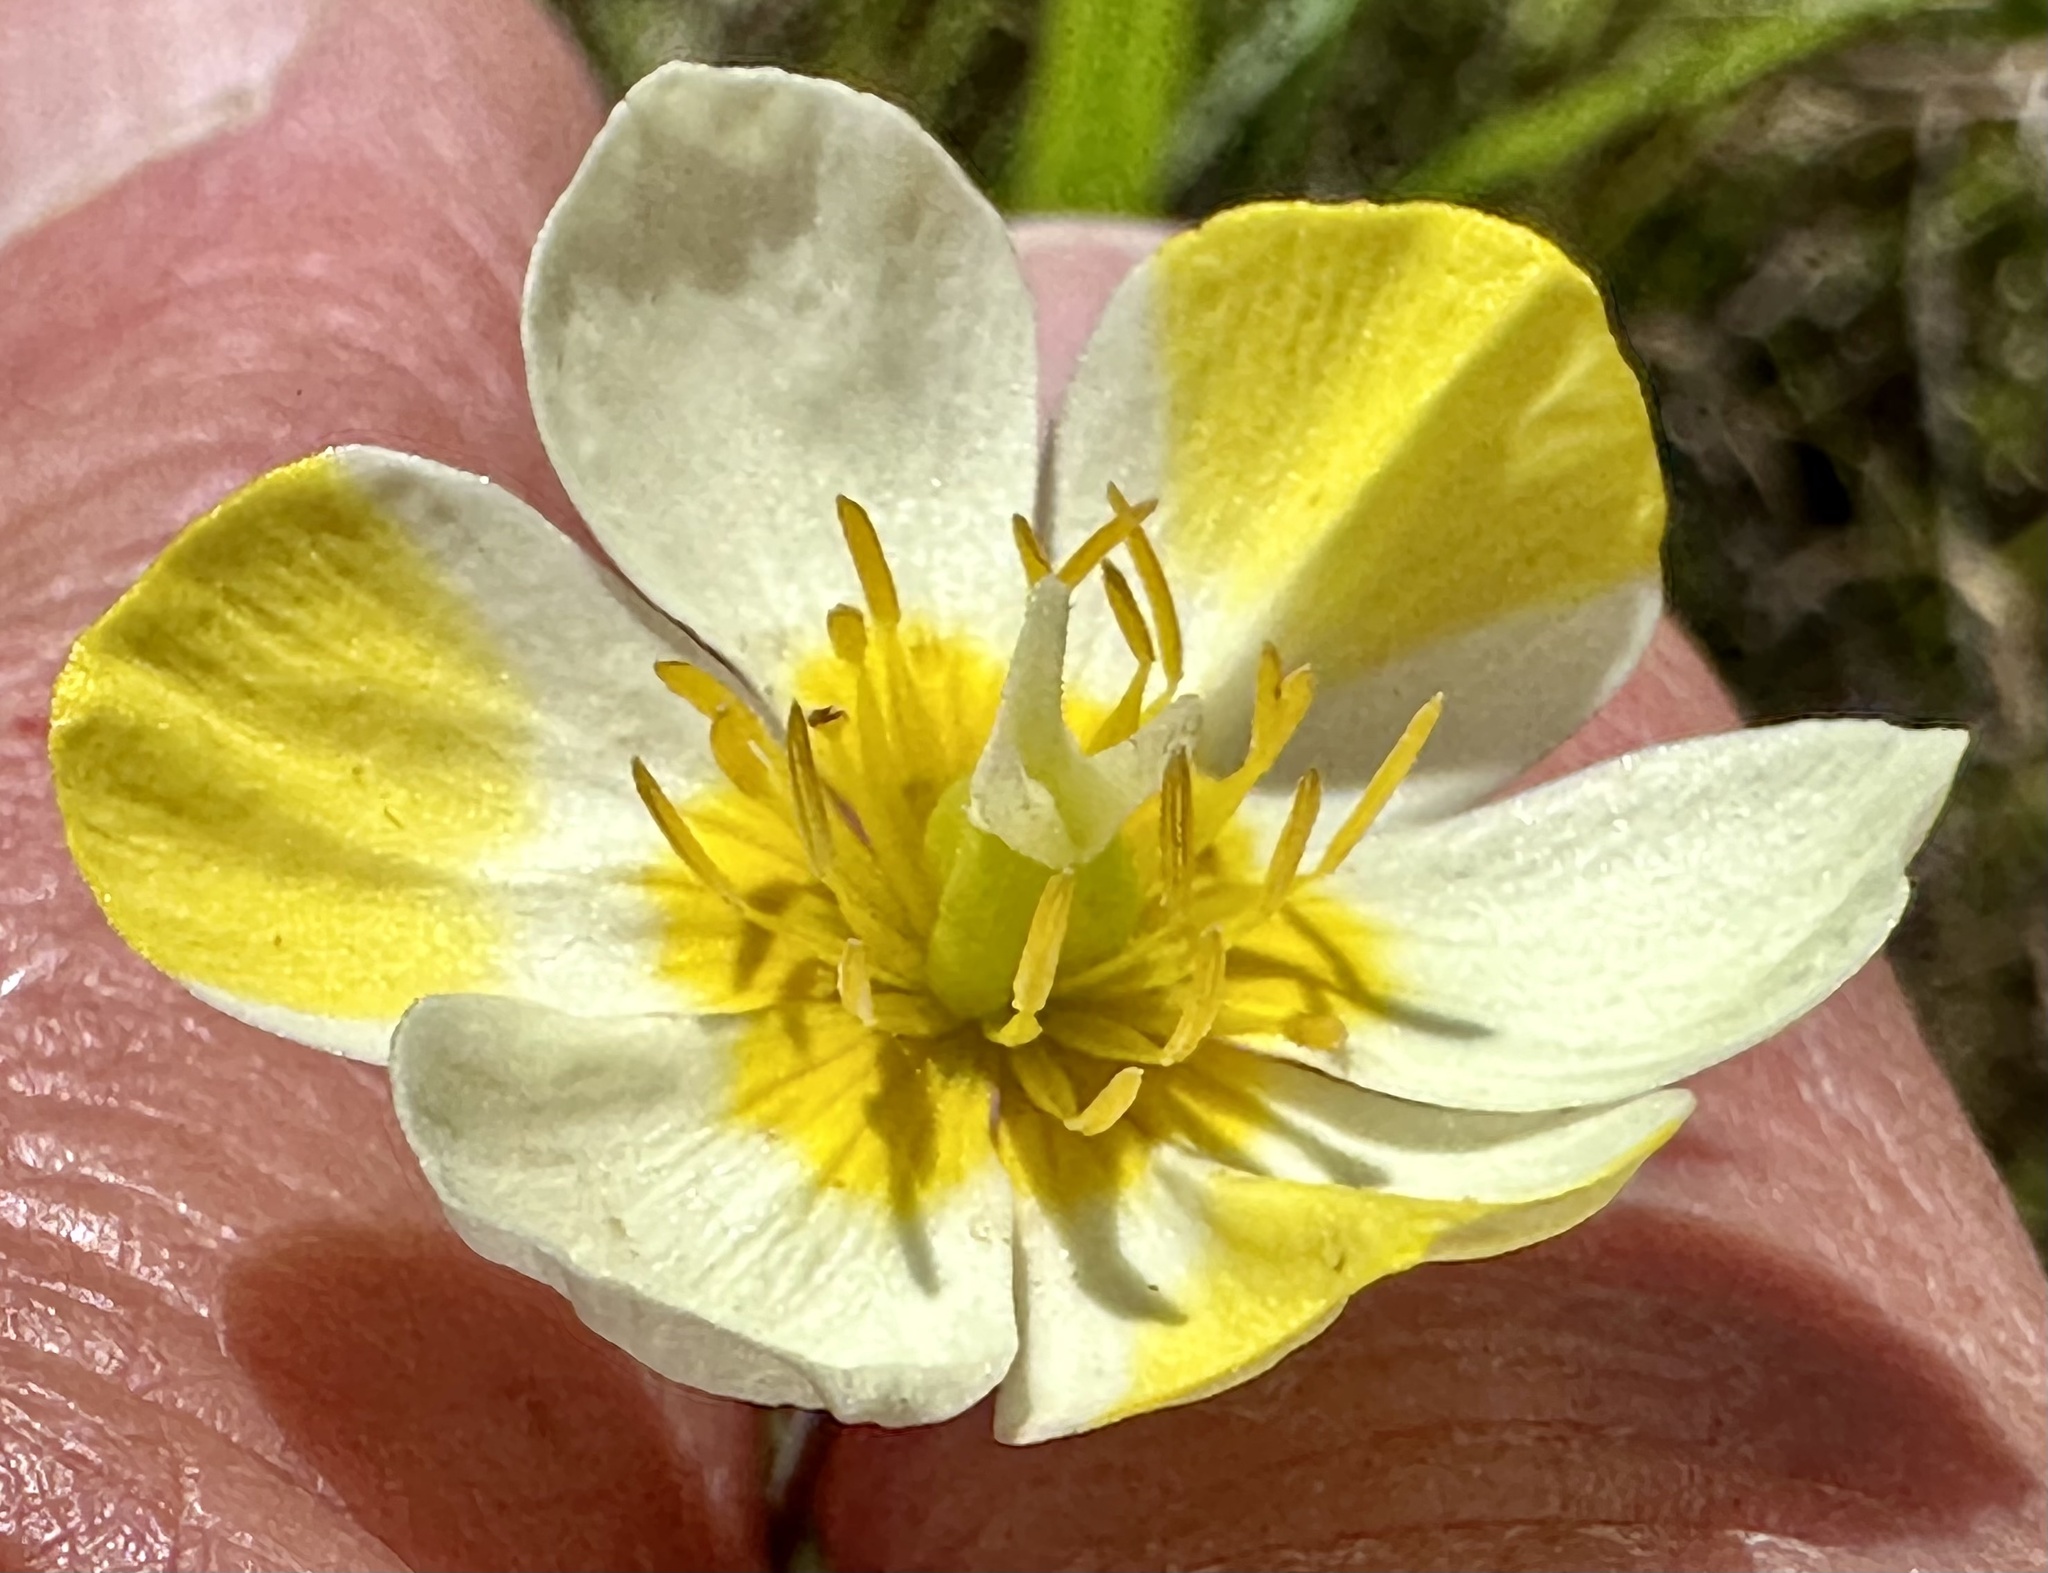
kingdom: Plantae
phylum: Tracheophyta
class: Magnoliopsida
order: Ranunculales
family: Papaveraceae
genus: Platystigma
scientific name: Platystigma lineare
